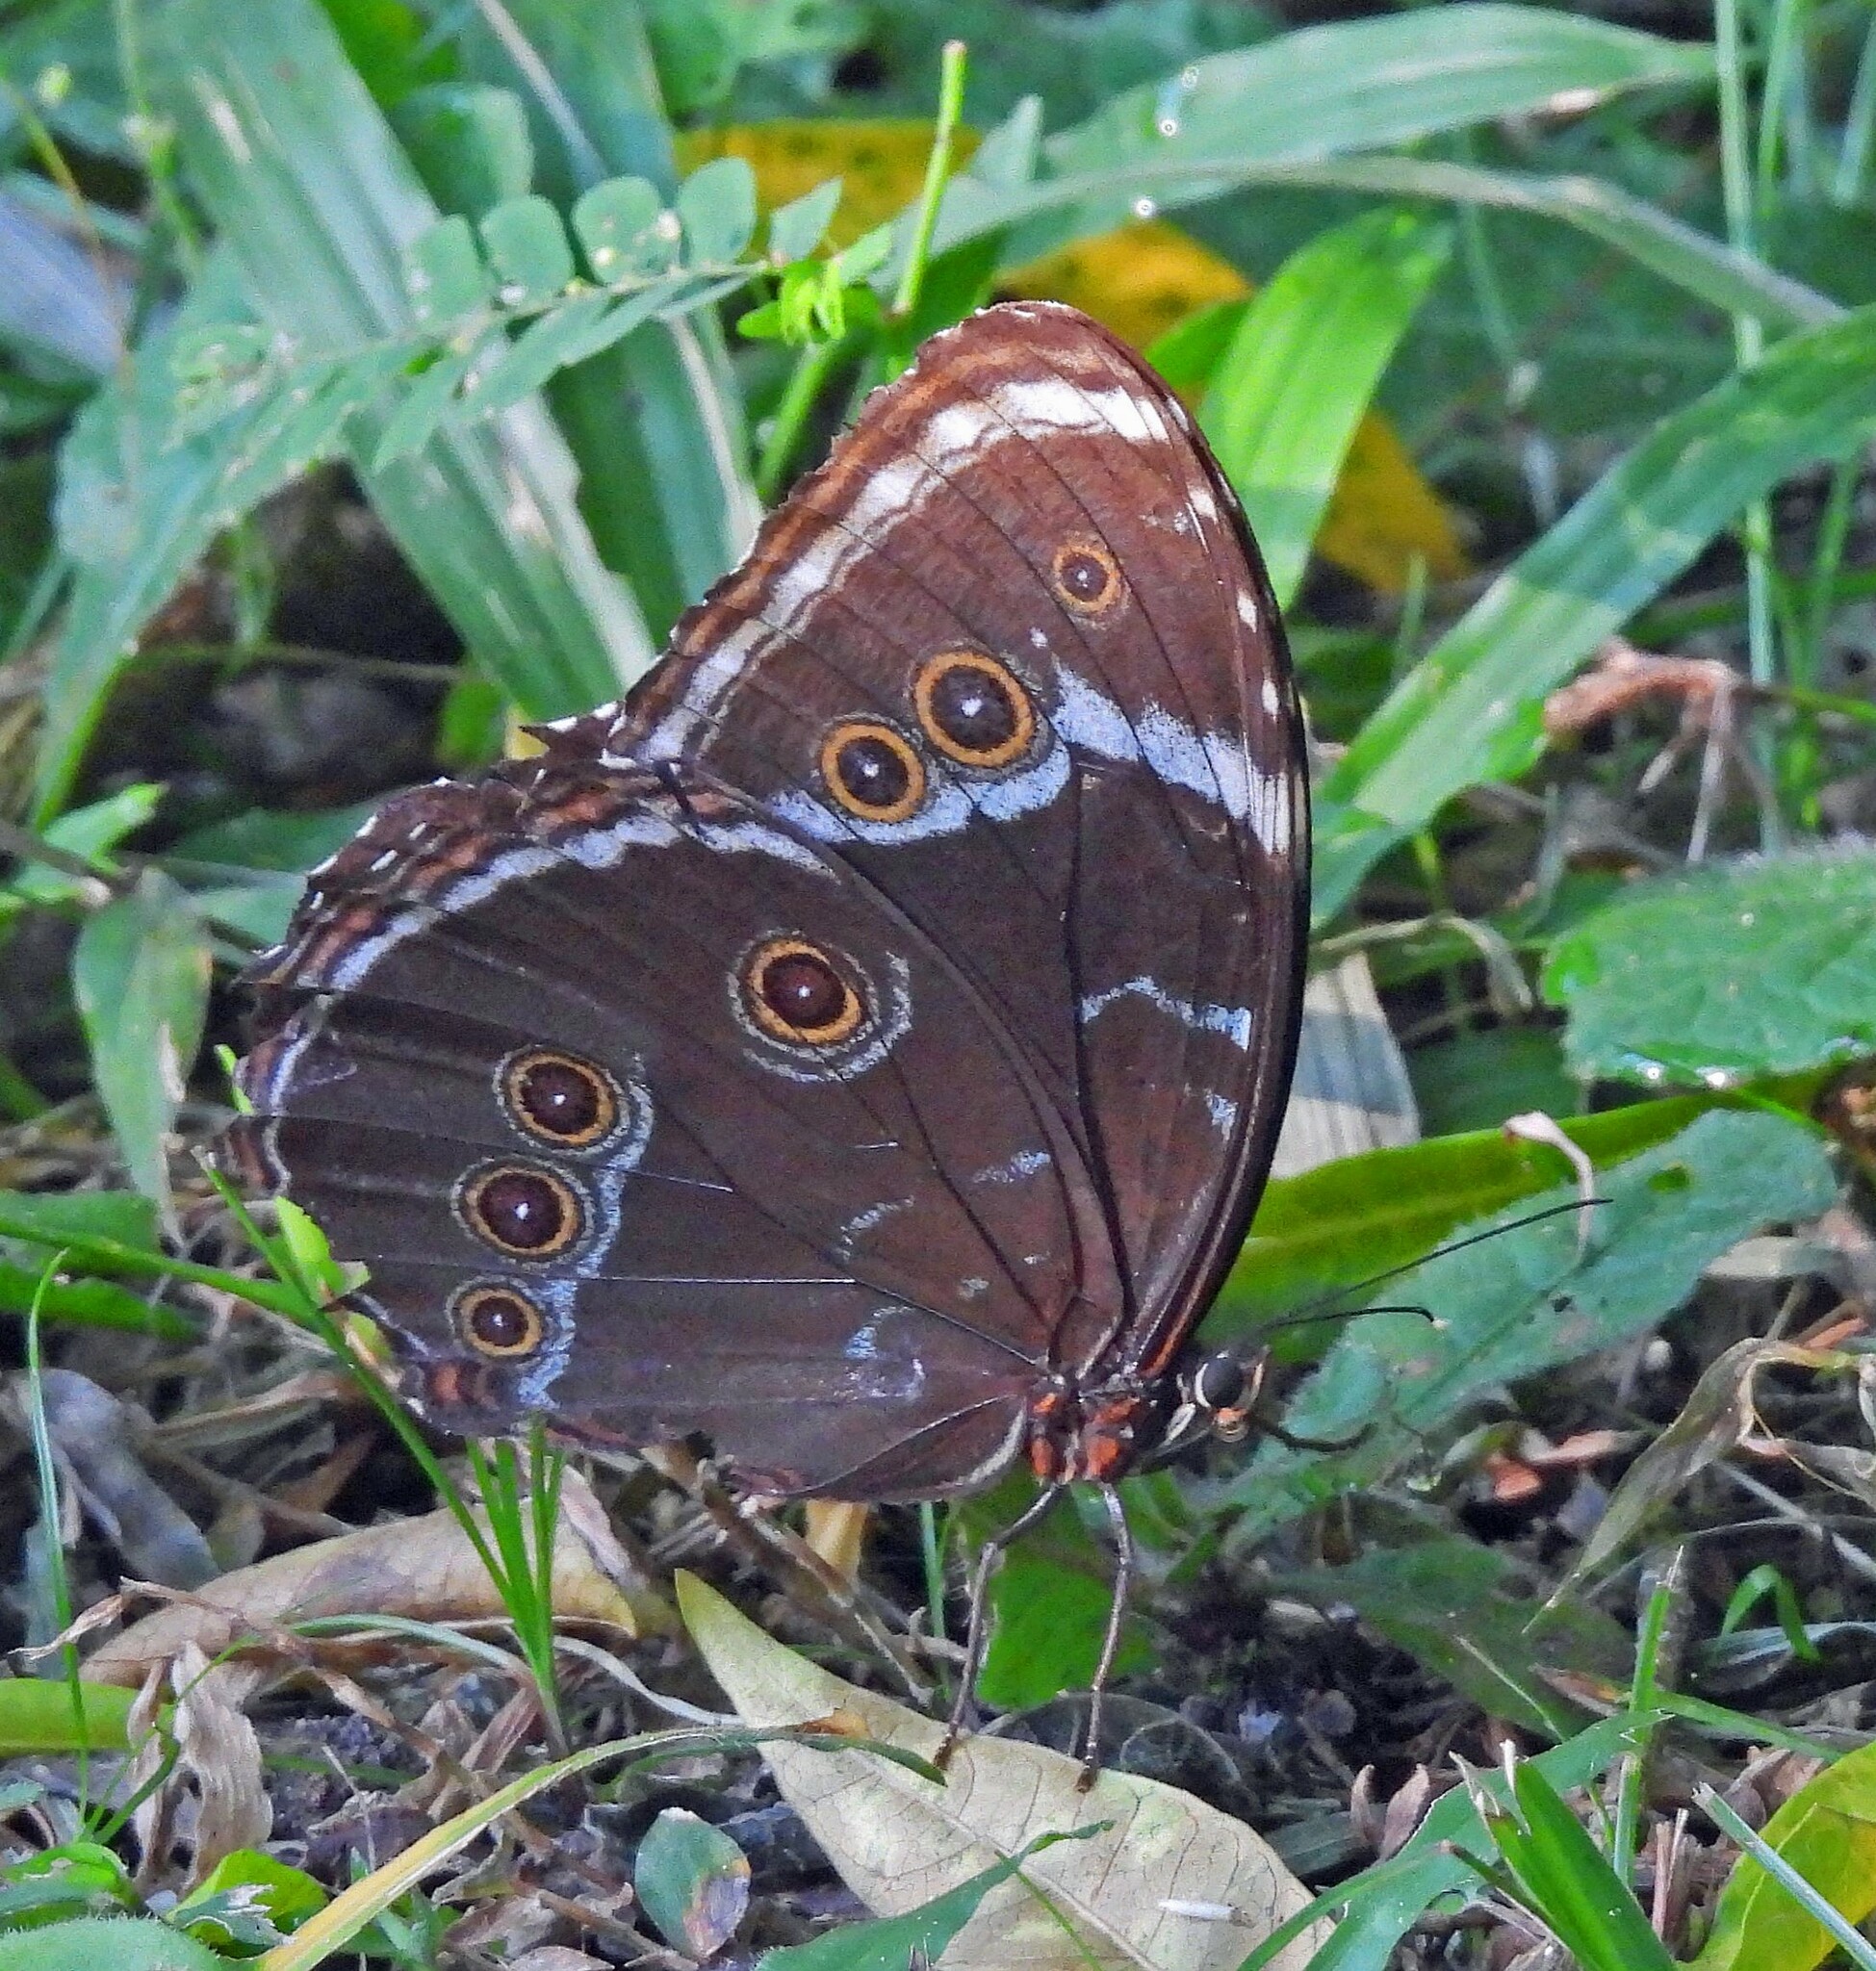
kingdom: Animalia
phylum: Arthropoda
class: Insecta
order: Lepidoptera
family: Nymphalidae
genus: Morpho
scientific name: Morpho helenor
